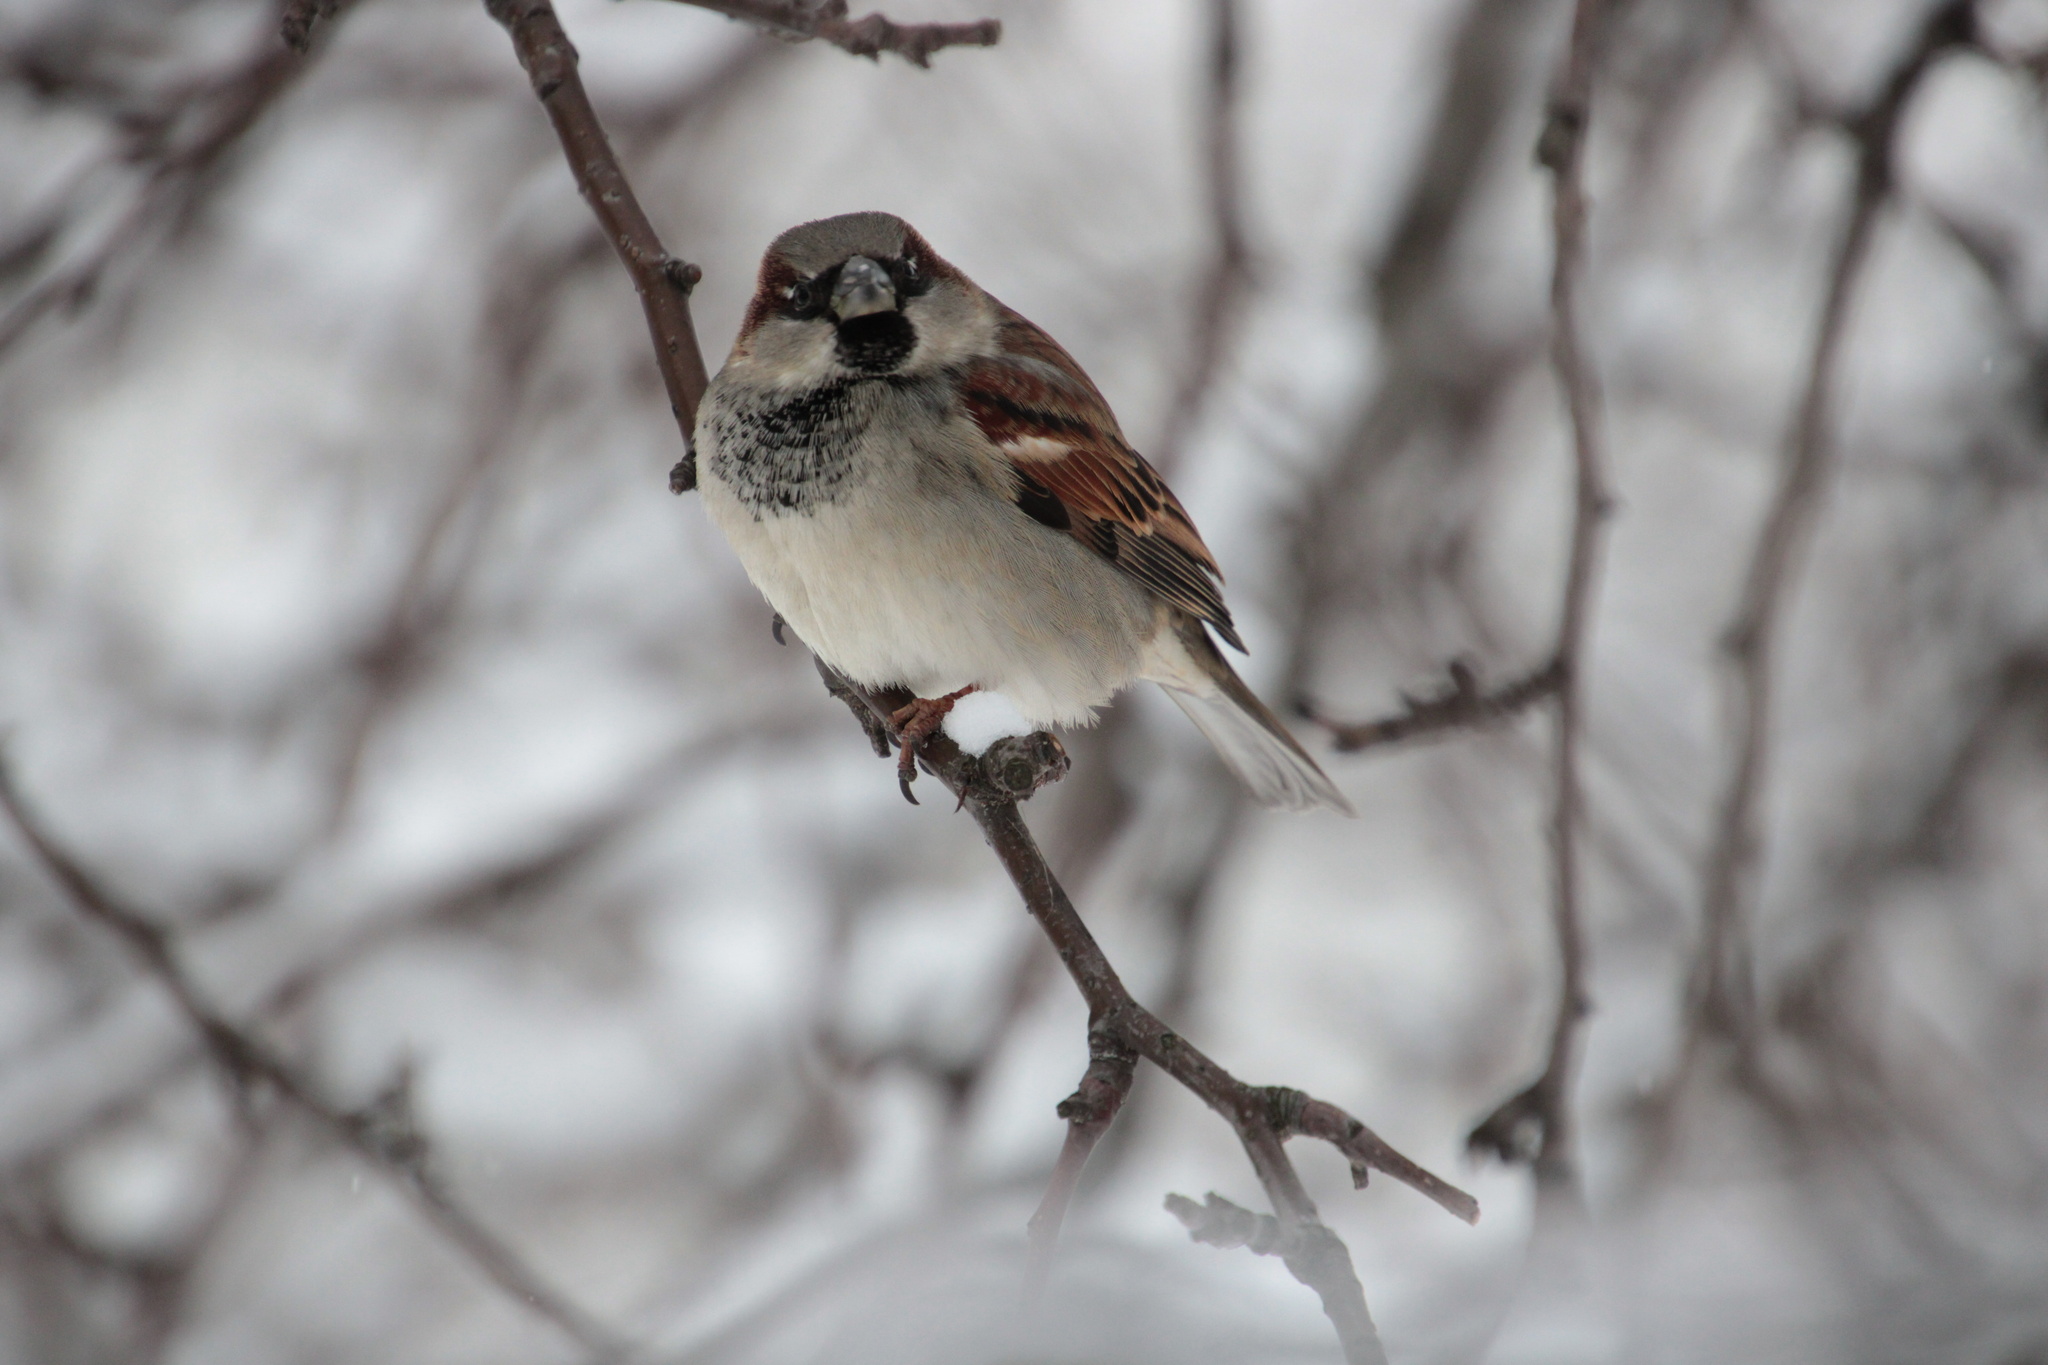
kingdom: Animalia
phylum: Chordata
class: Aves
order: Passeriformes
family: Passeridae
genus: Passer
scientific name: Passer domesticus
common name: House sparrow
